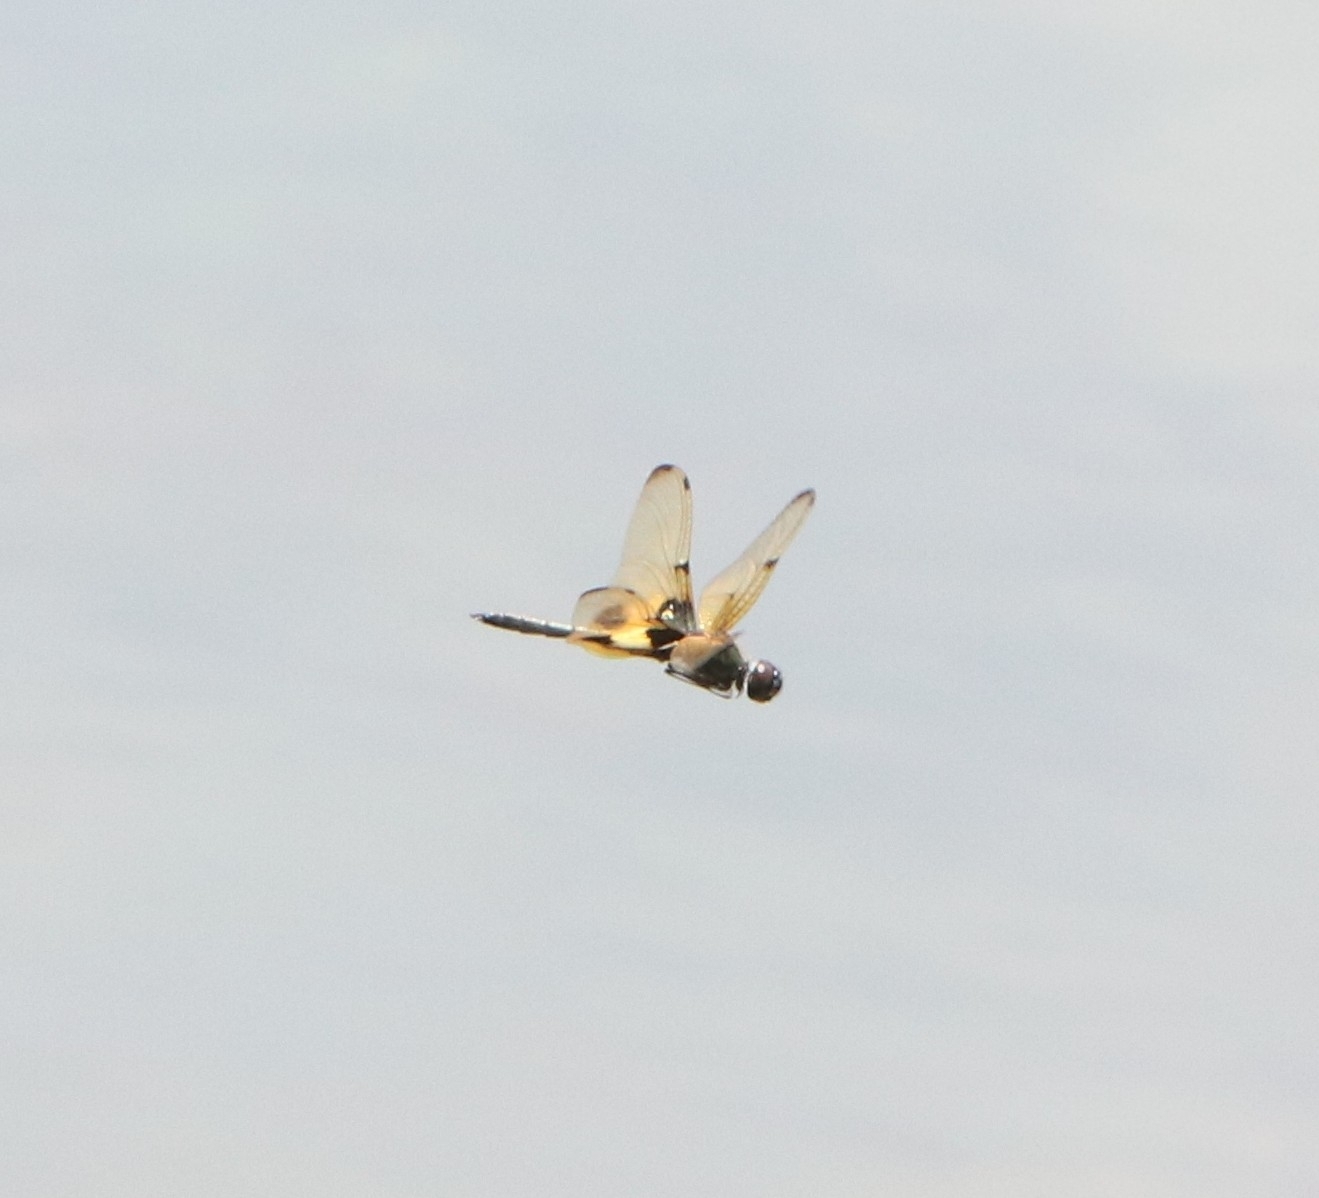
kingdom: Animalia
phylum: Arthropoda
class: Insecta
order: Odonata
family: Libellulidae
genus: Rhyothemis
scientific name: Rhyothemis variegata
